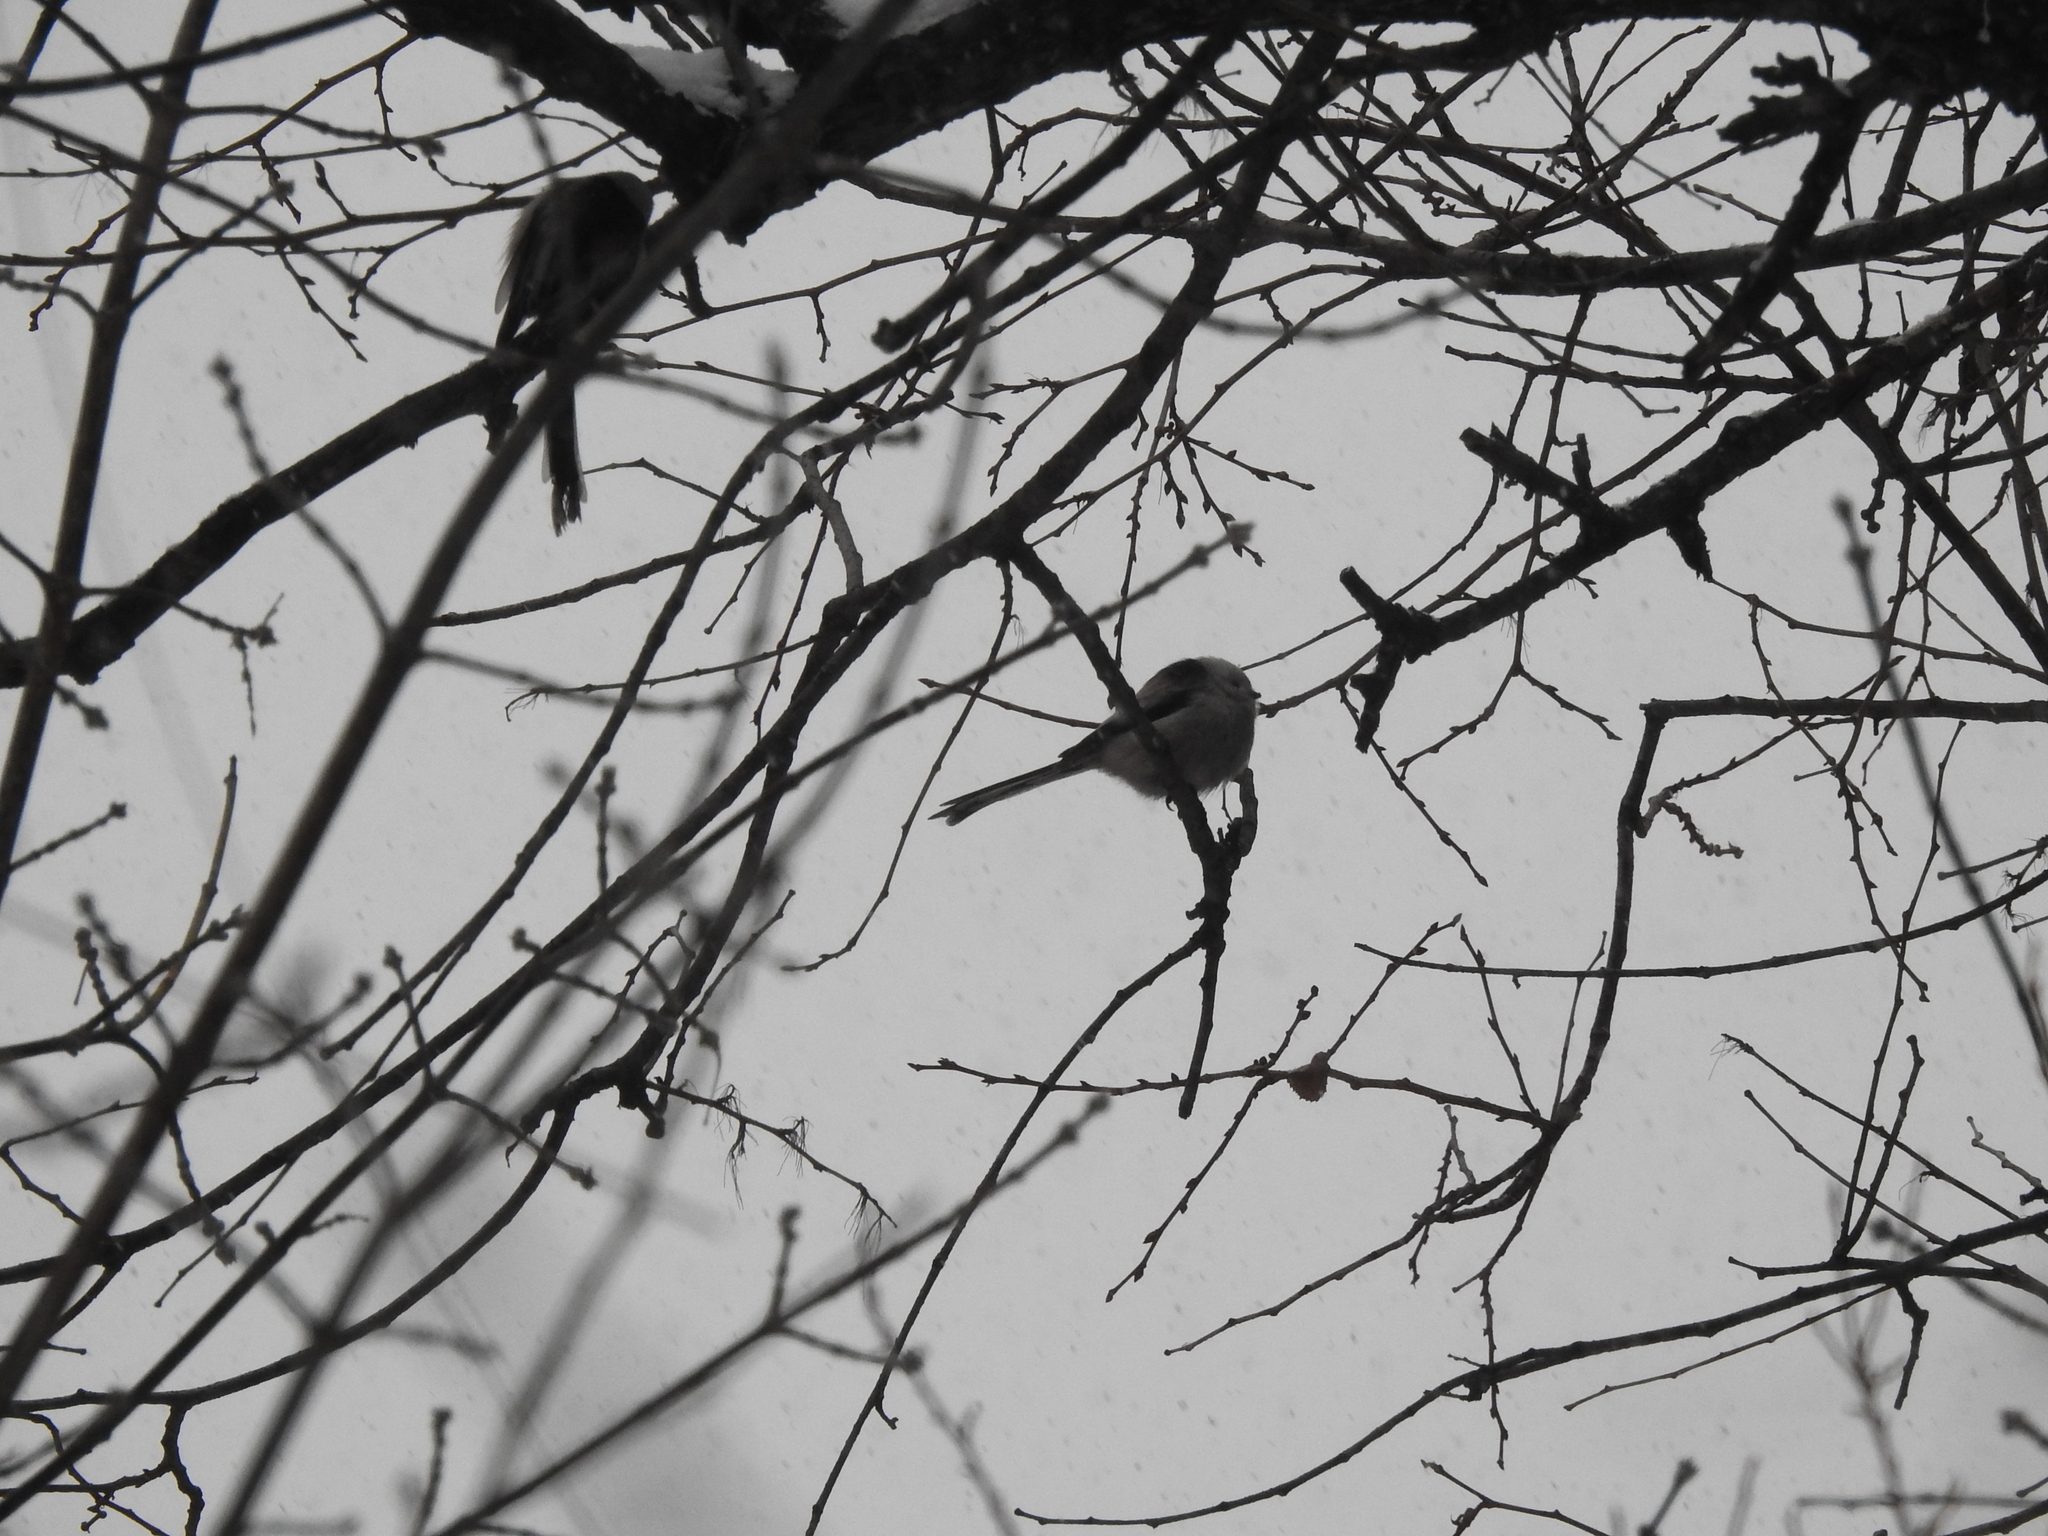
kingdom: Animalia
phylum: Chordata
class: Aves
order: Passeriformes
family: Aegithalidae
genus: Aegithalos
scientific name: Aegithalos caudatus
